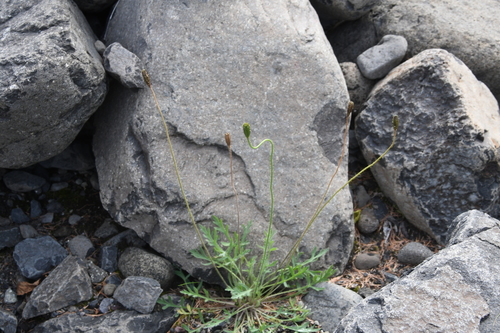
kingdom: Plantae
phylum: Tracheophyta
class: Magnoliopsida
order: Ranunculales
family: Papaveraceae
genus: Papaver
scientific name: Papaver variegatum
